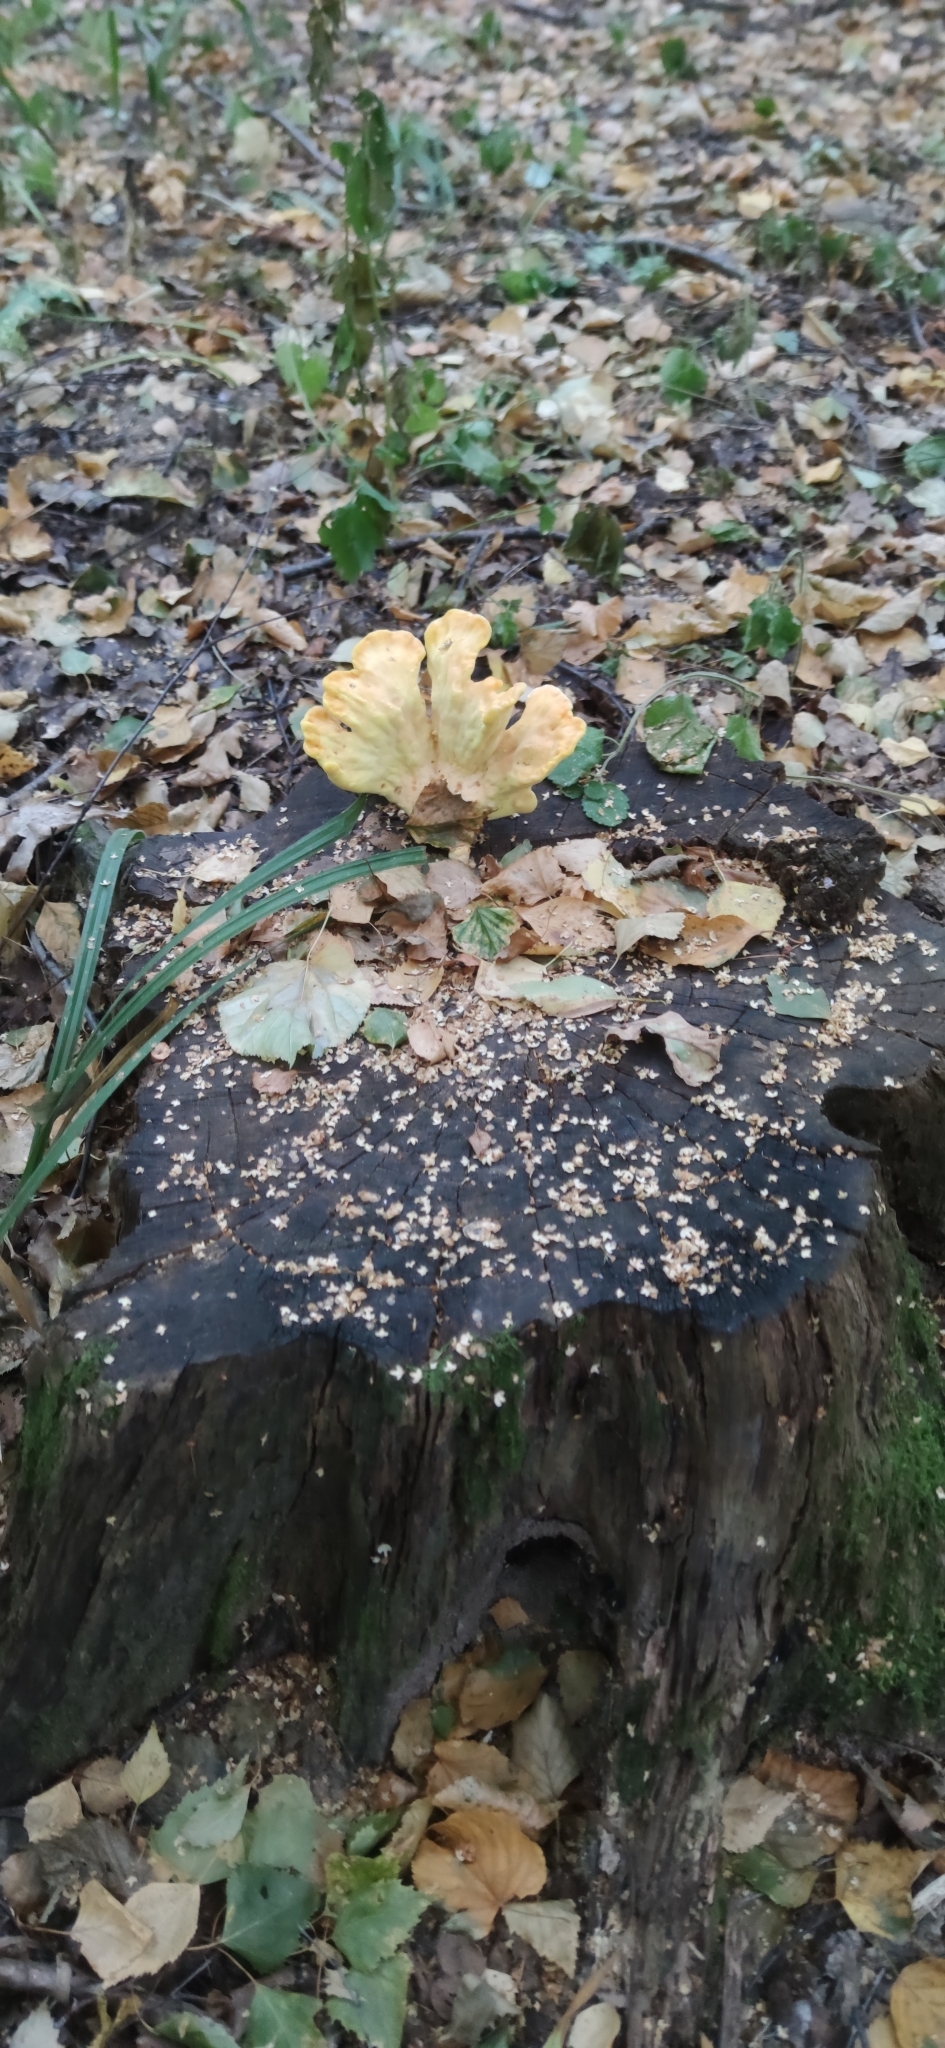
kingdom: Fungi
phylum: Basidiomycota
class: Agaricomycetes
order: Polyporales
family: Laetiporaceae
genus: Laetiporus
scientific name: Laetiporus sulphureus
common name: Chicken of the woods
